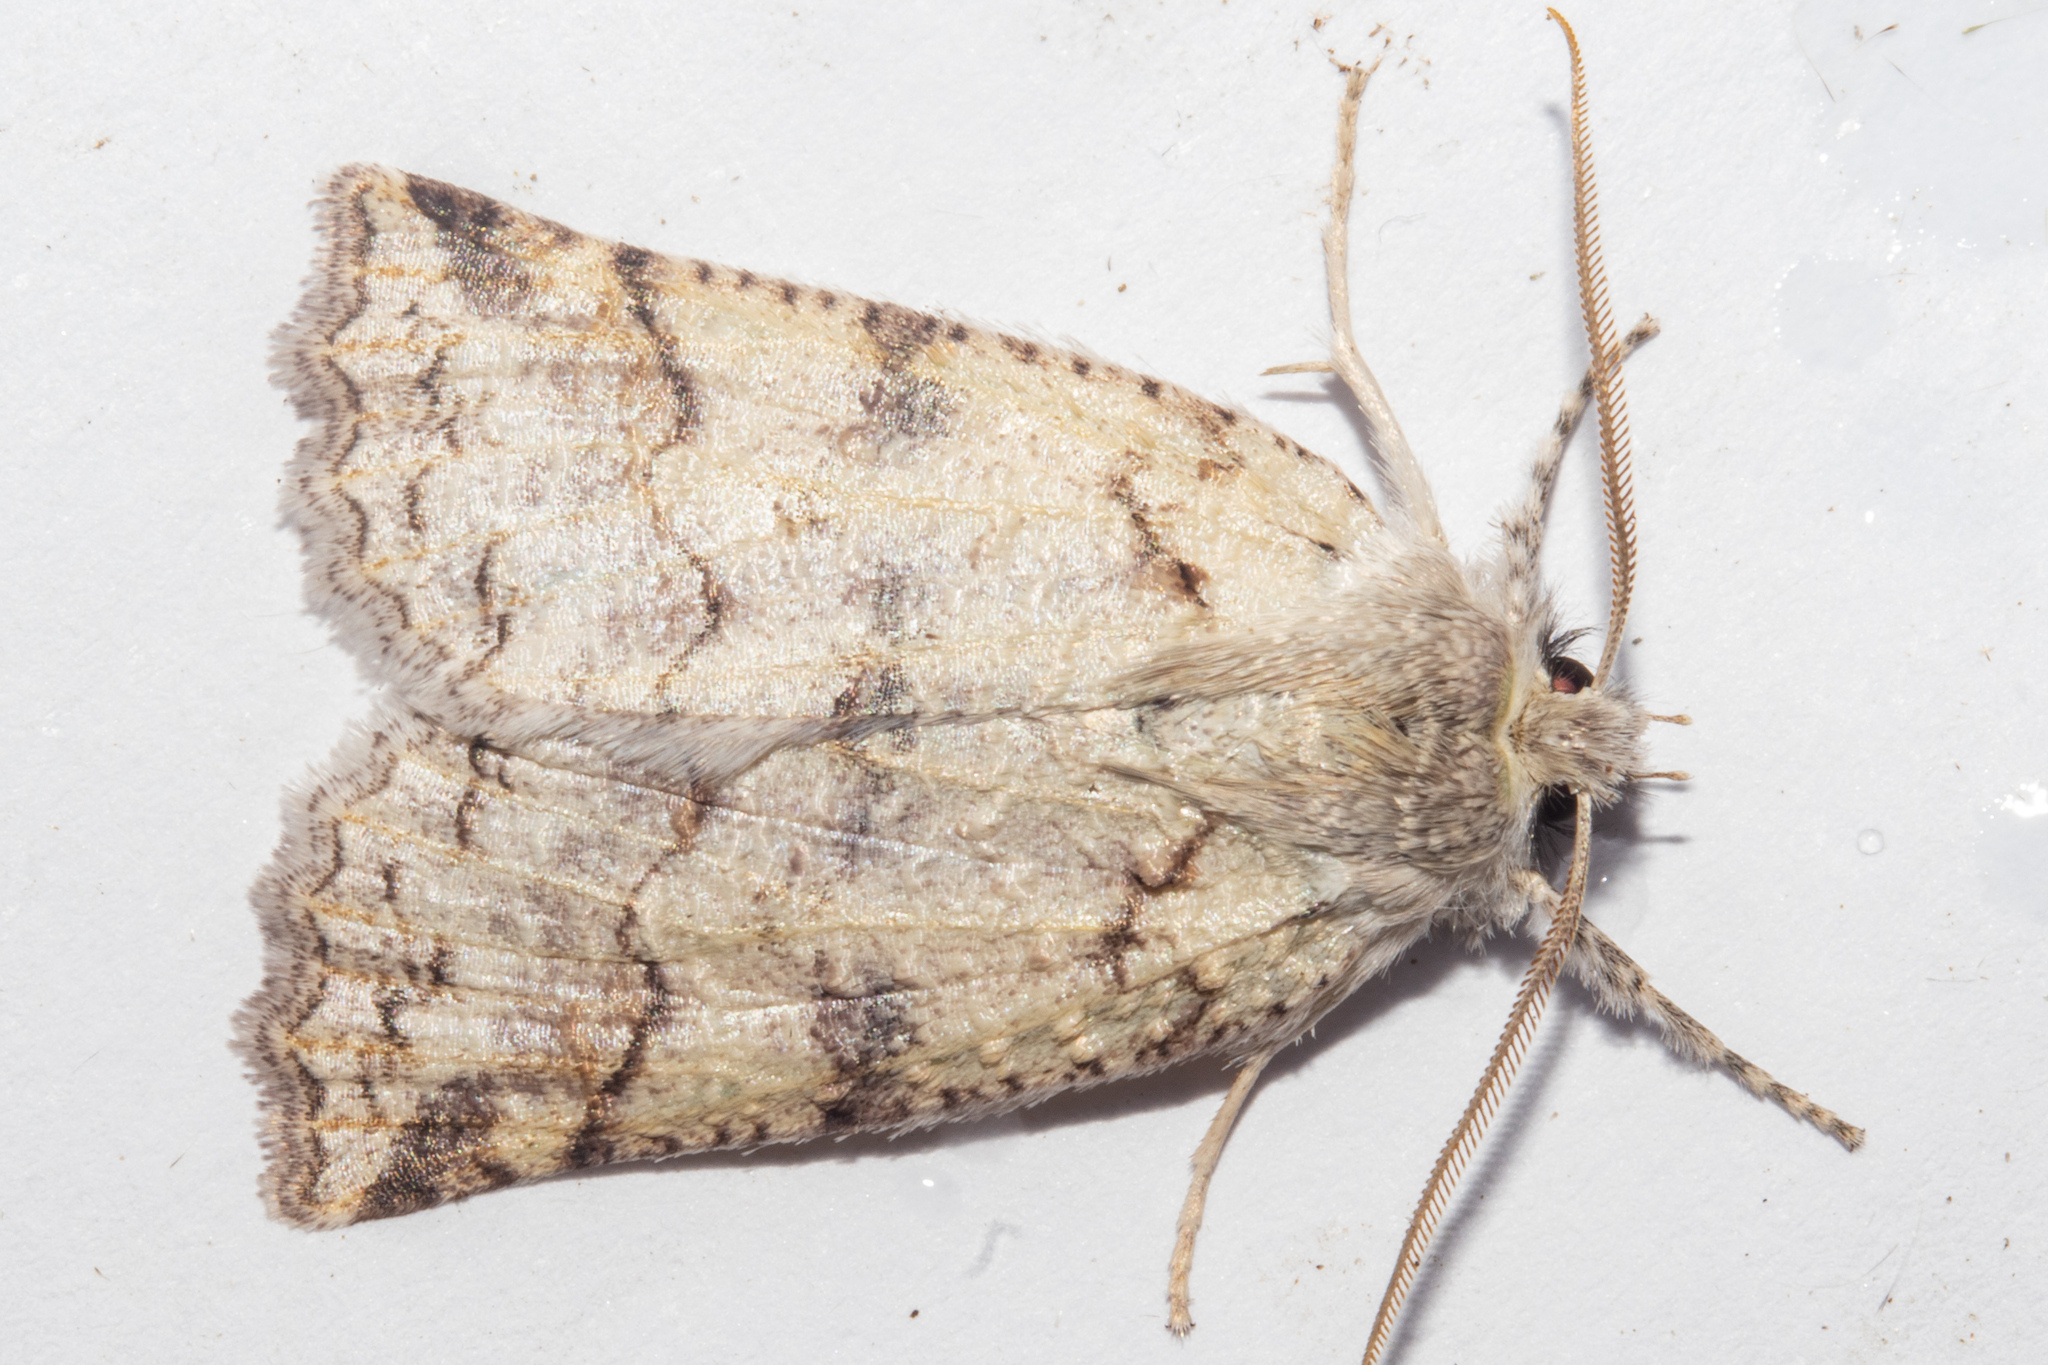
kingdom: Animalia
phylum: Arthropoda
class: Insecta
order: Lepidoptera
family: Geometridae
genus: Declana
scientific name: Declana floccosa
